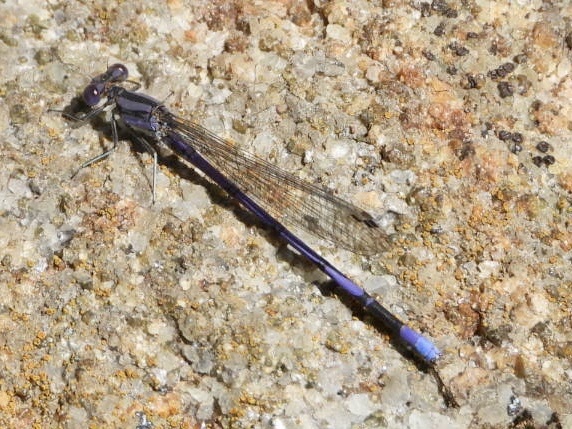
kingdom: Animalia
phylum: Arthropoda
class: Insecta
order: Odonata
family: Coenagrionidae
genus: Argia
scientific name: Argia fumipennis
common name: Variable dancer
